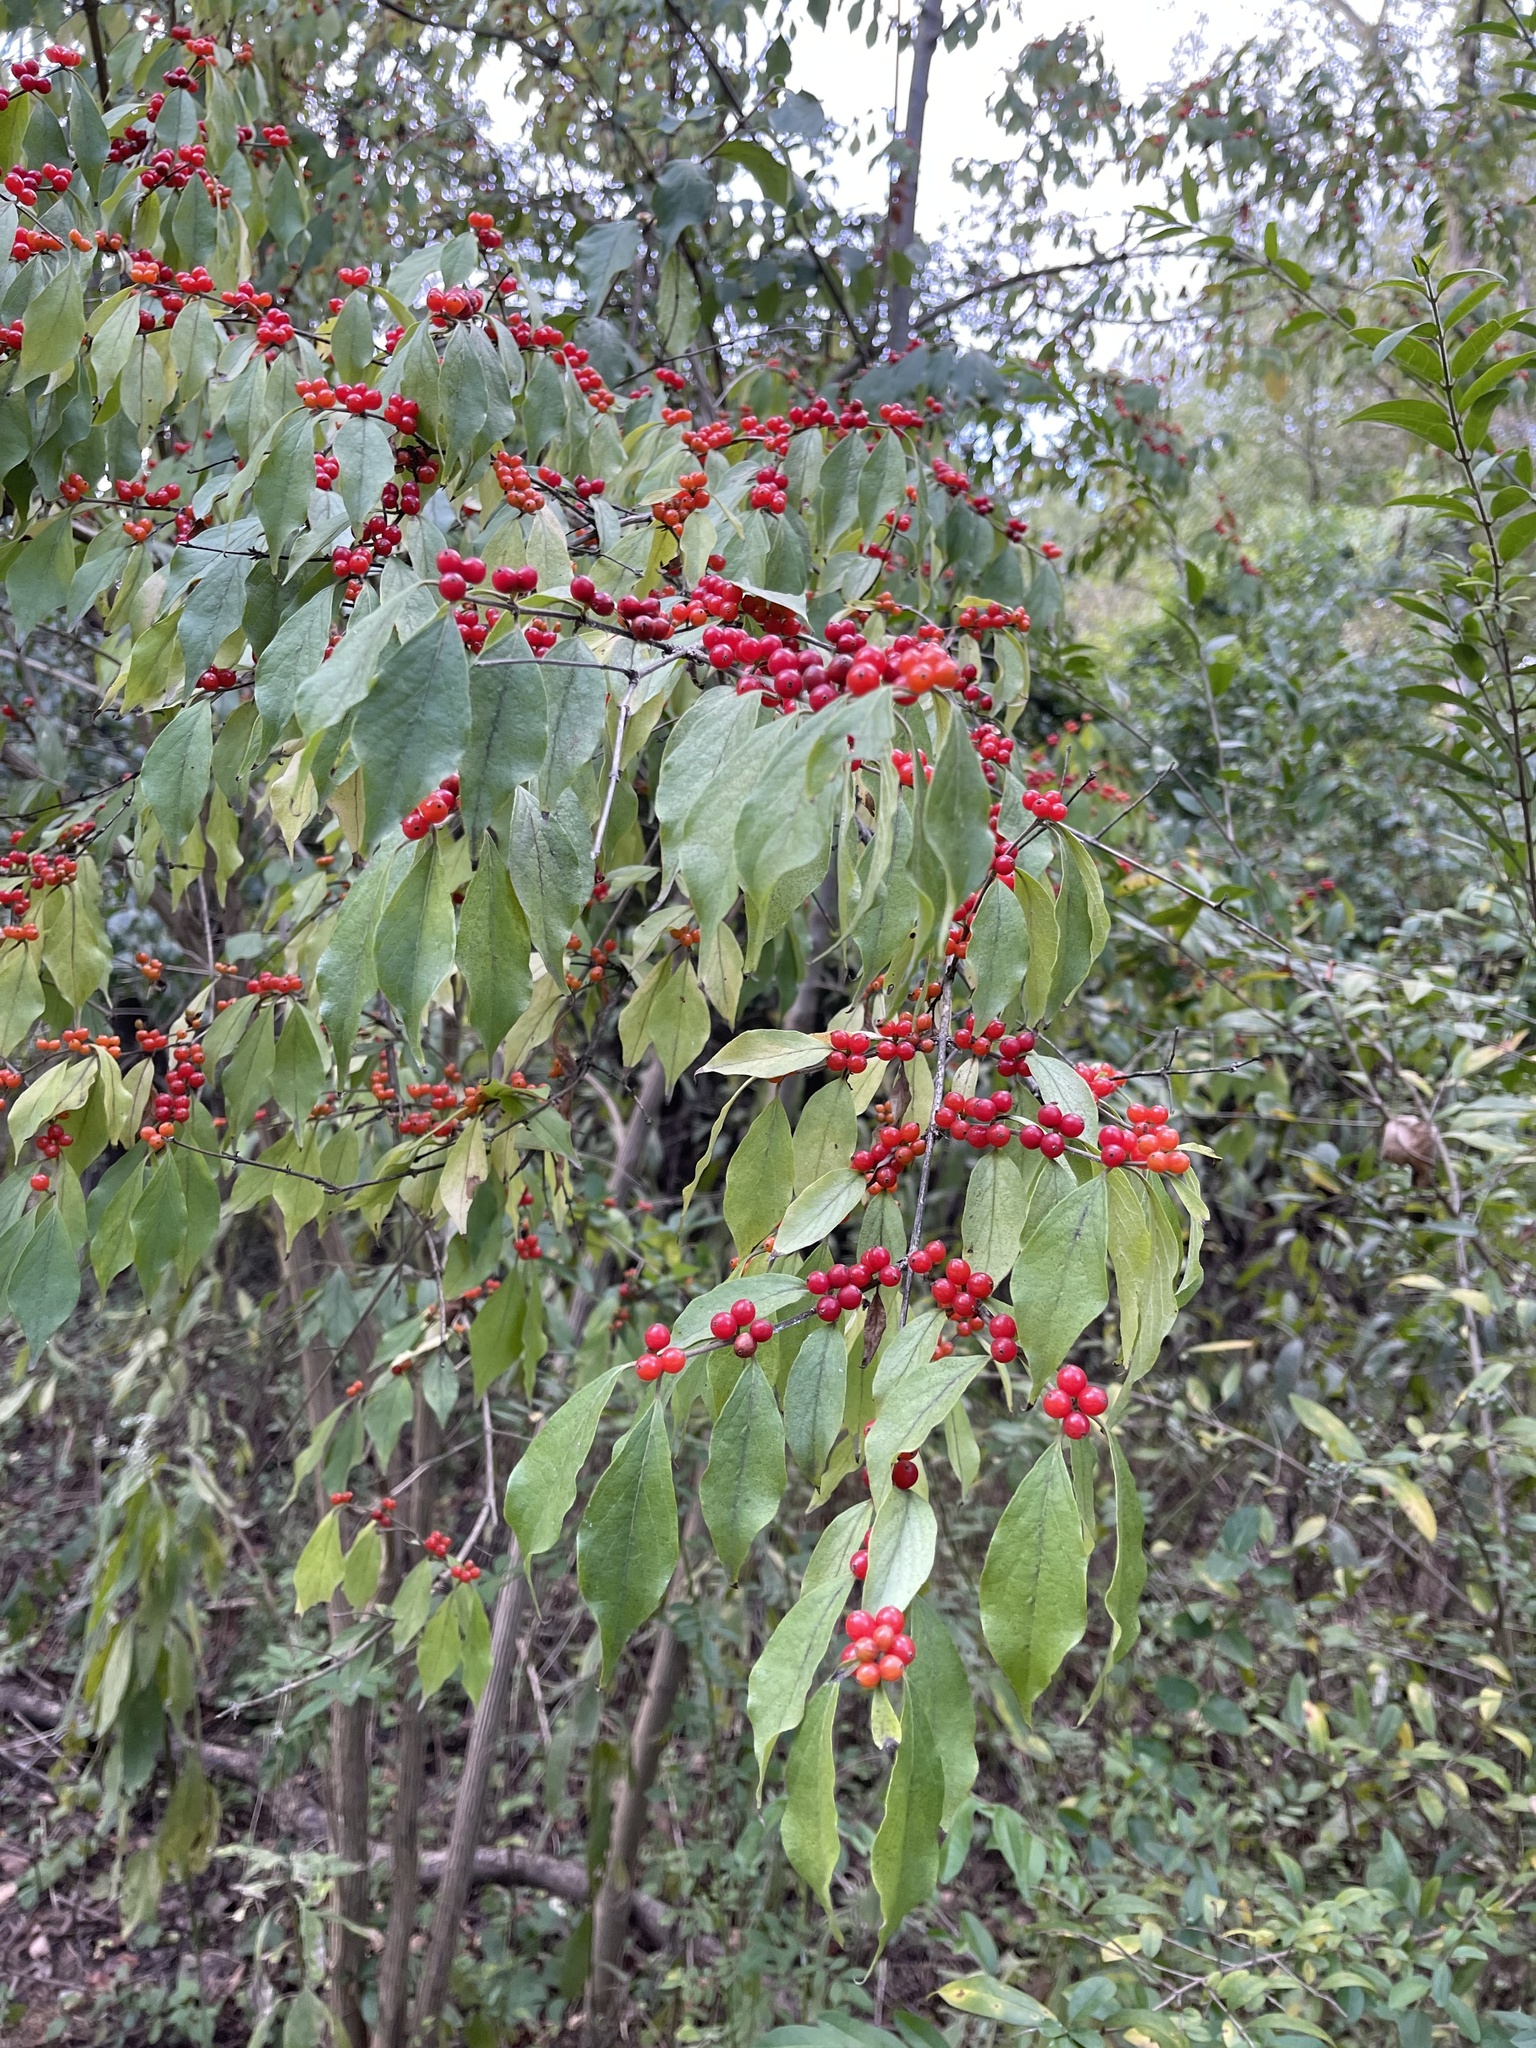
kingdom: Plantae
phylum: Tracheophyta
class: Magnoliopsida
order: Dipsacales
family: Caprifoliaceae
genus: Lonicera
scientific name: Lonicera maackii
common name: Amur honeysuckle
